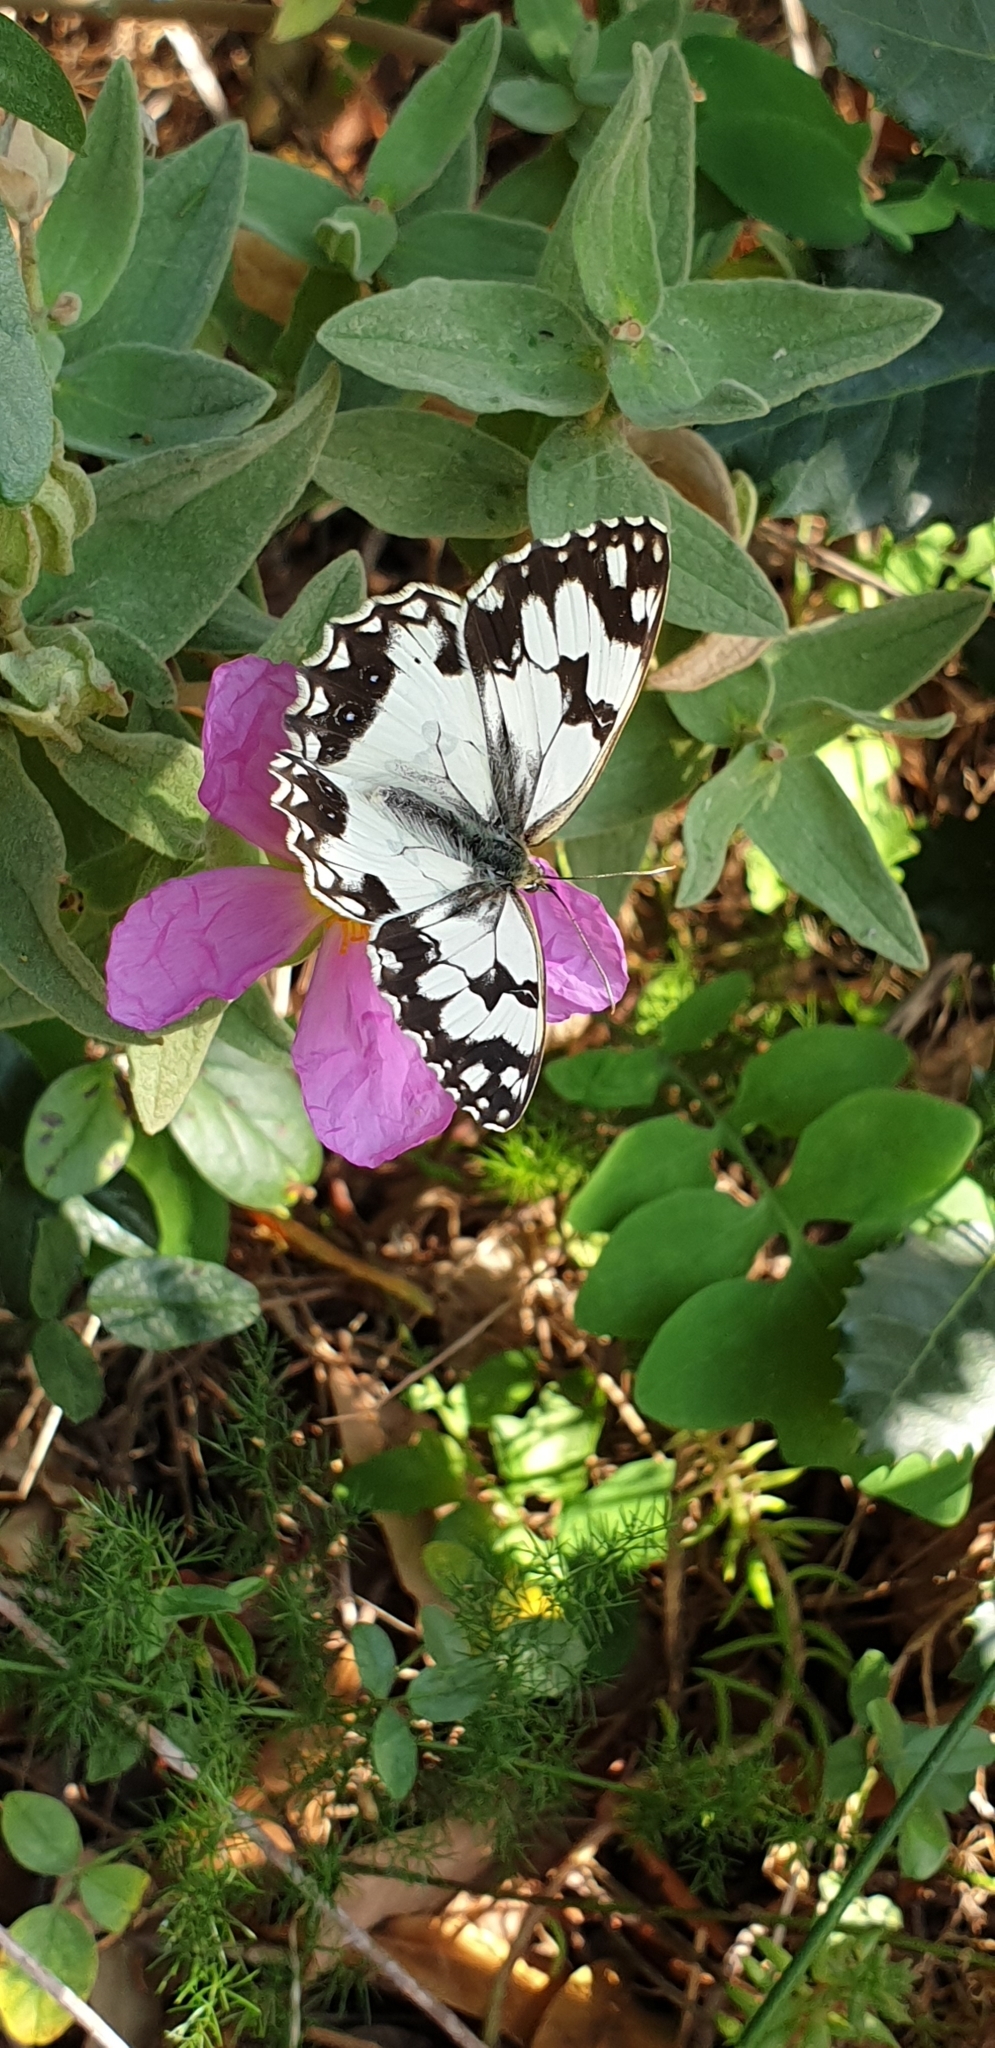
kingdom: Animalia
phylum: Arthropoda
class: Insecta
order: Lepidoptera
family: Nymphalidae
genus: Melanargia
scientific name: Melanargia lachesis
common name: Iberian marbled white
